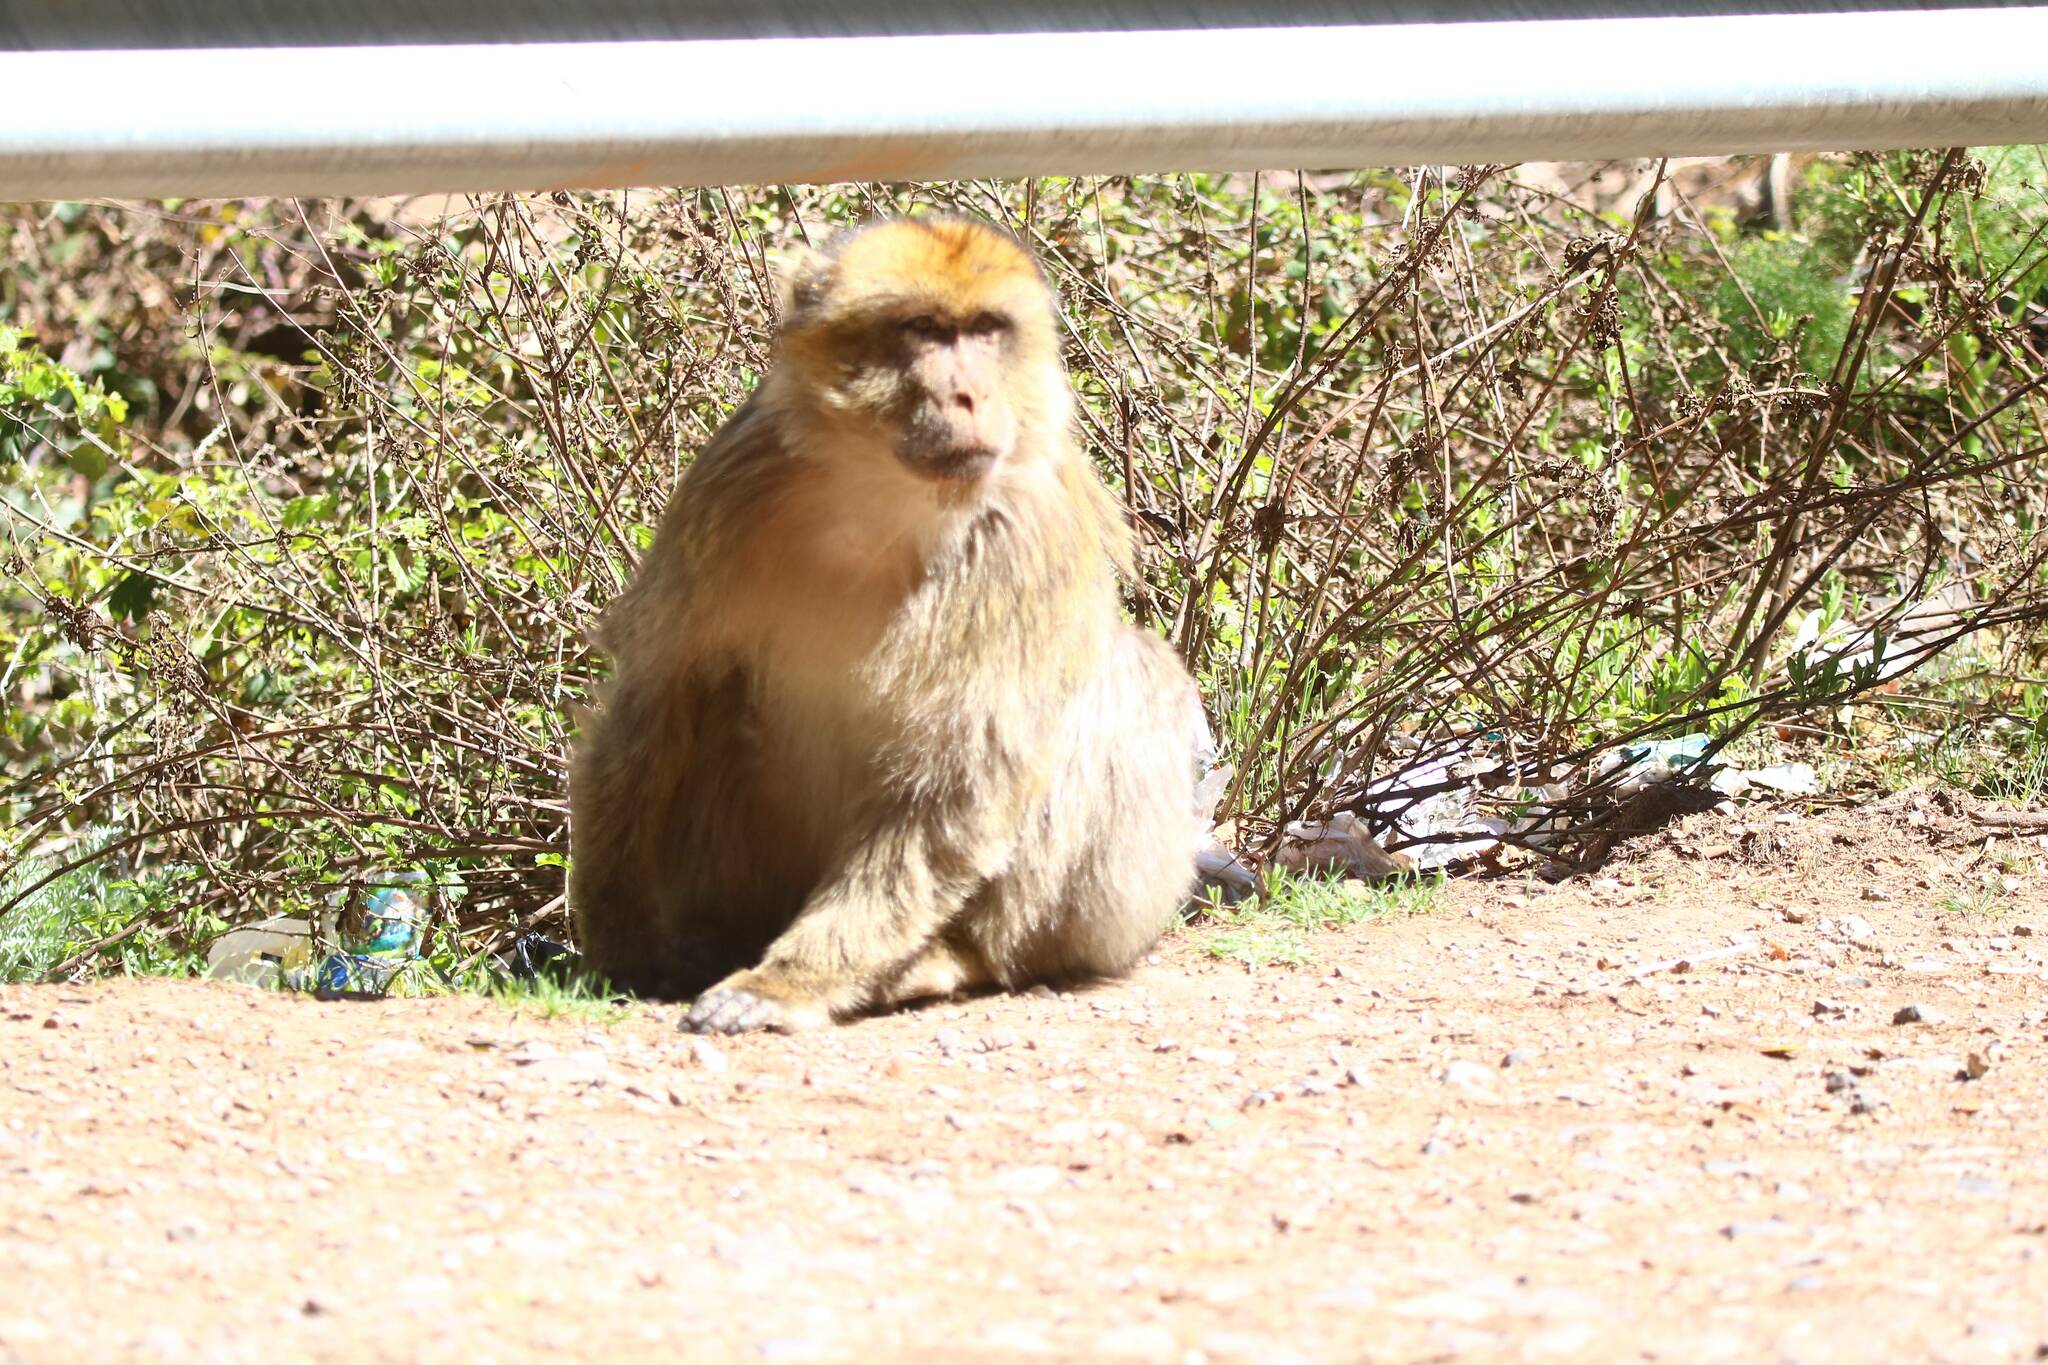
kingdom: Animalia
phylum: Chordata
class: Mammalia
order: Primates
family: Cercopithecidae
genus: Macaca
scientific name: Macaca sylvanus
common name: Barbary macaque
